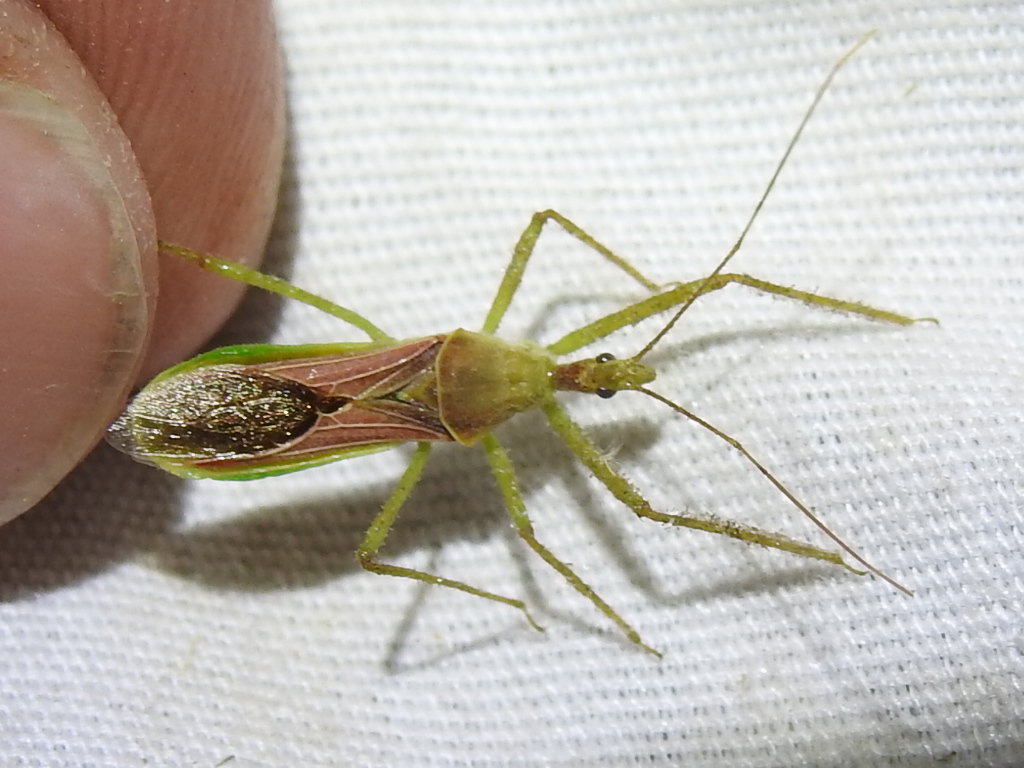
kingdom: Animalia
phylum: Arthropoda
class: Insecta
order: Hemiptera
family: Reduviidae
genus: Zelus
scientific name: Zelus renardii
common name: Assassin bug
